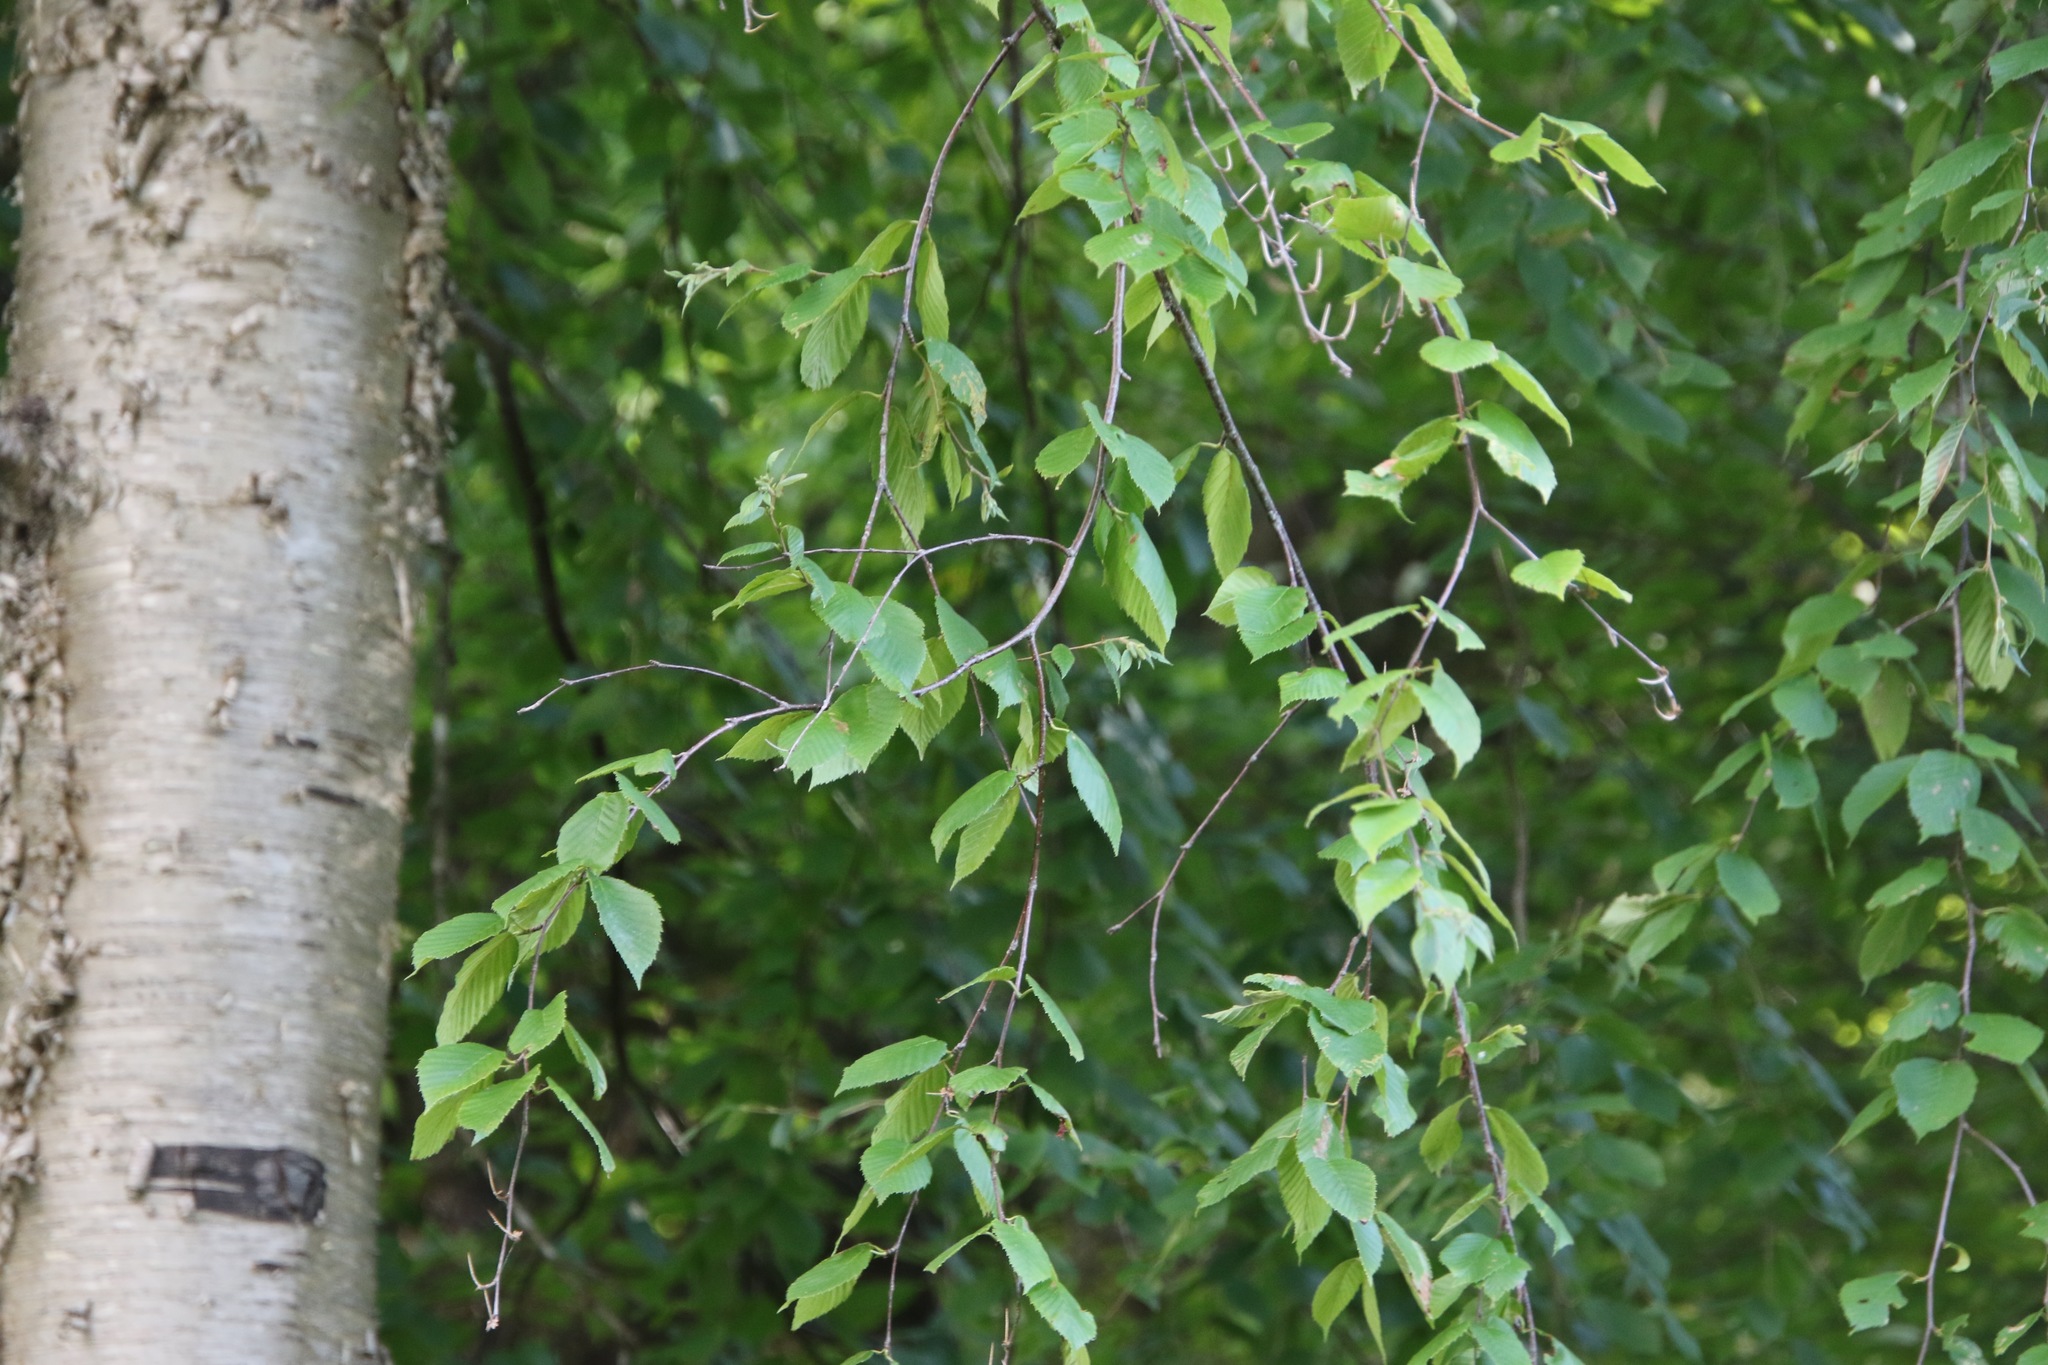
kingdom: Plantae
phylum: Tracheophyta
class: Magnoliopsida
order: Fagales
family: Betulaceae
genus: Betula
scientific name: Betula alleghaniensis
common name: Yellow birch
